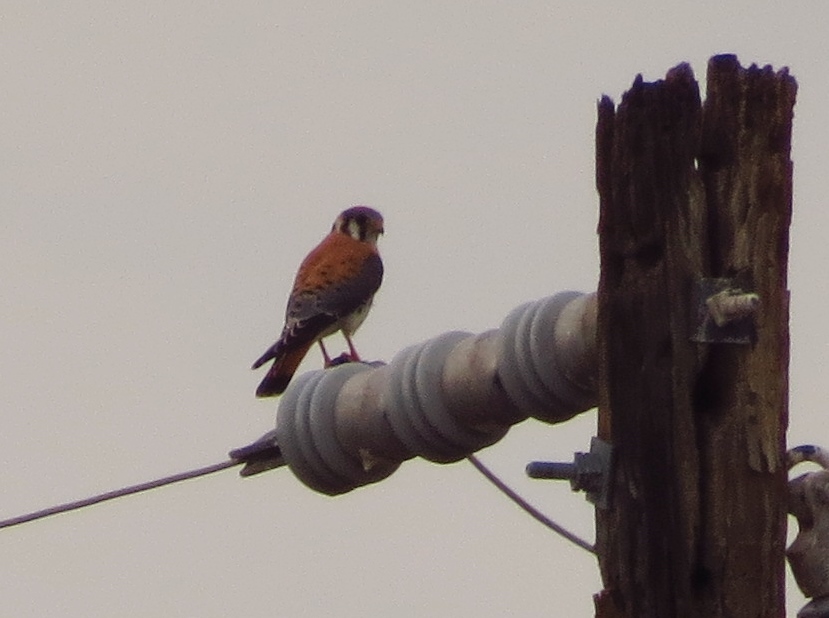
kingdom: Animalia
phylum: Chordata
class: Aves
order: Falconiformes
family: Falconidae
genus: Falco
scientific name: Falco sparverius
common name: American kestrel
